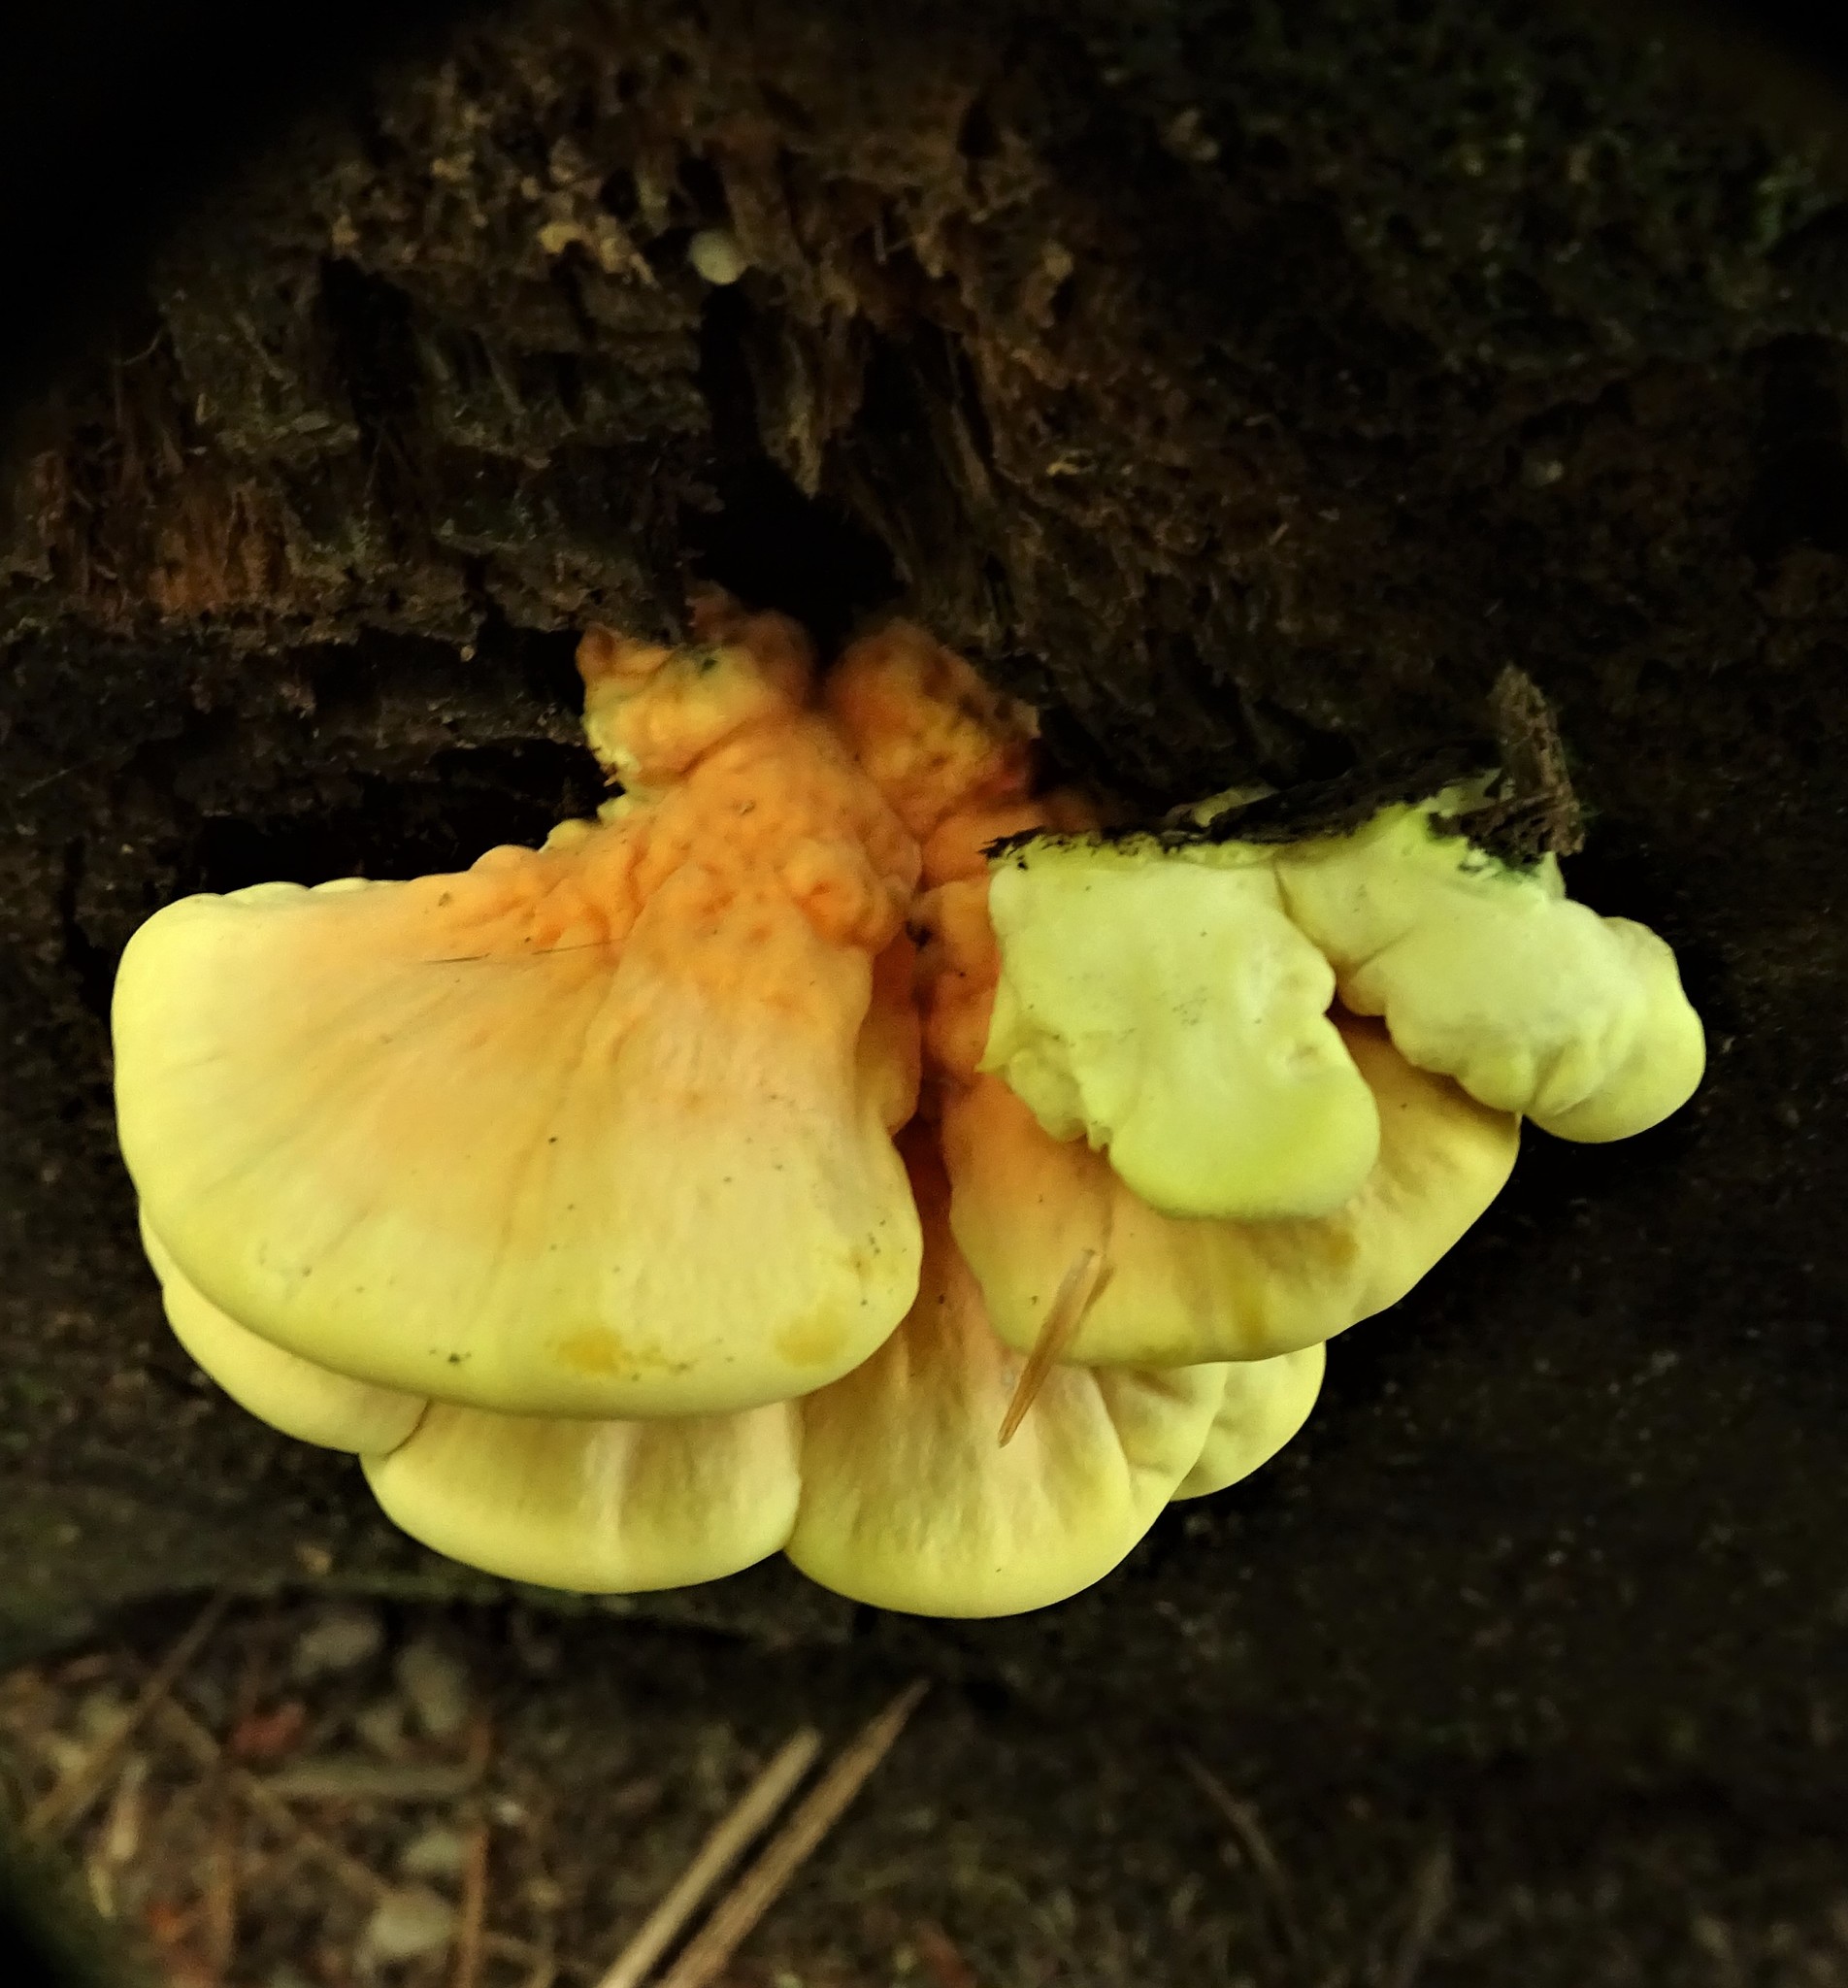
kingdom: Fungi
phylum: Basidiomycota
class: Agaricomycetes
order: Polyporales
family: Laetiporaceae
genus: Laetiporus
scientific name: Laetiporus sulphureus
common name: Chicken of the woods
